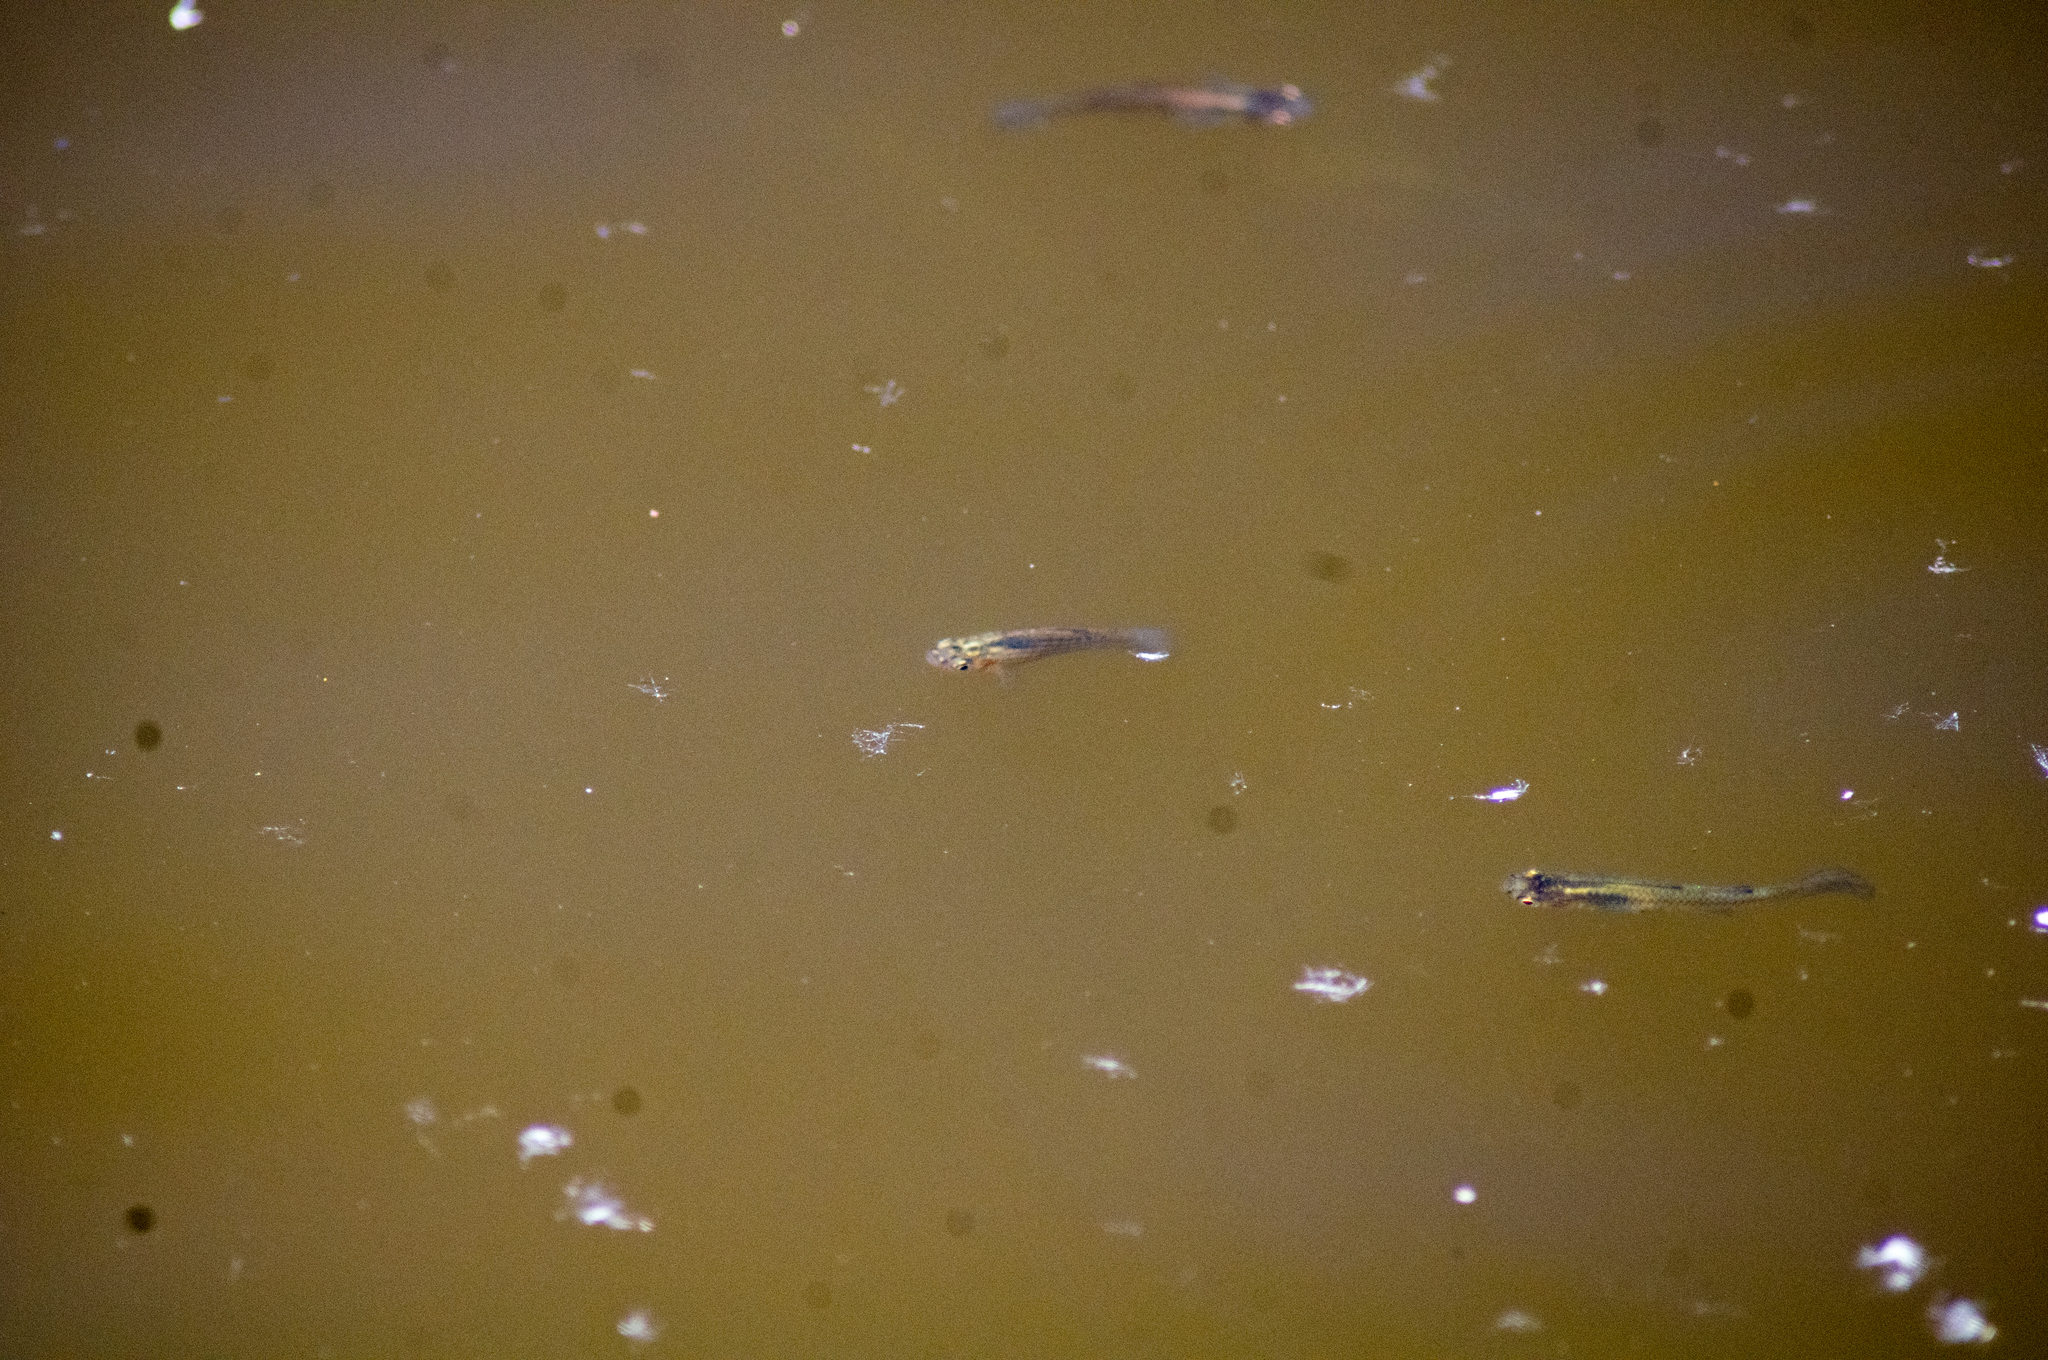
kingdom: Animalia
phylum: Chordata
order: Cyprinodontiformes
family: Poeciliidae
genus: Gambusia
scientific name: Gambusia affinis
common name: Mosquitofish
